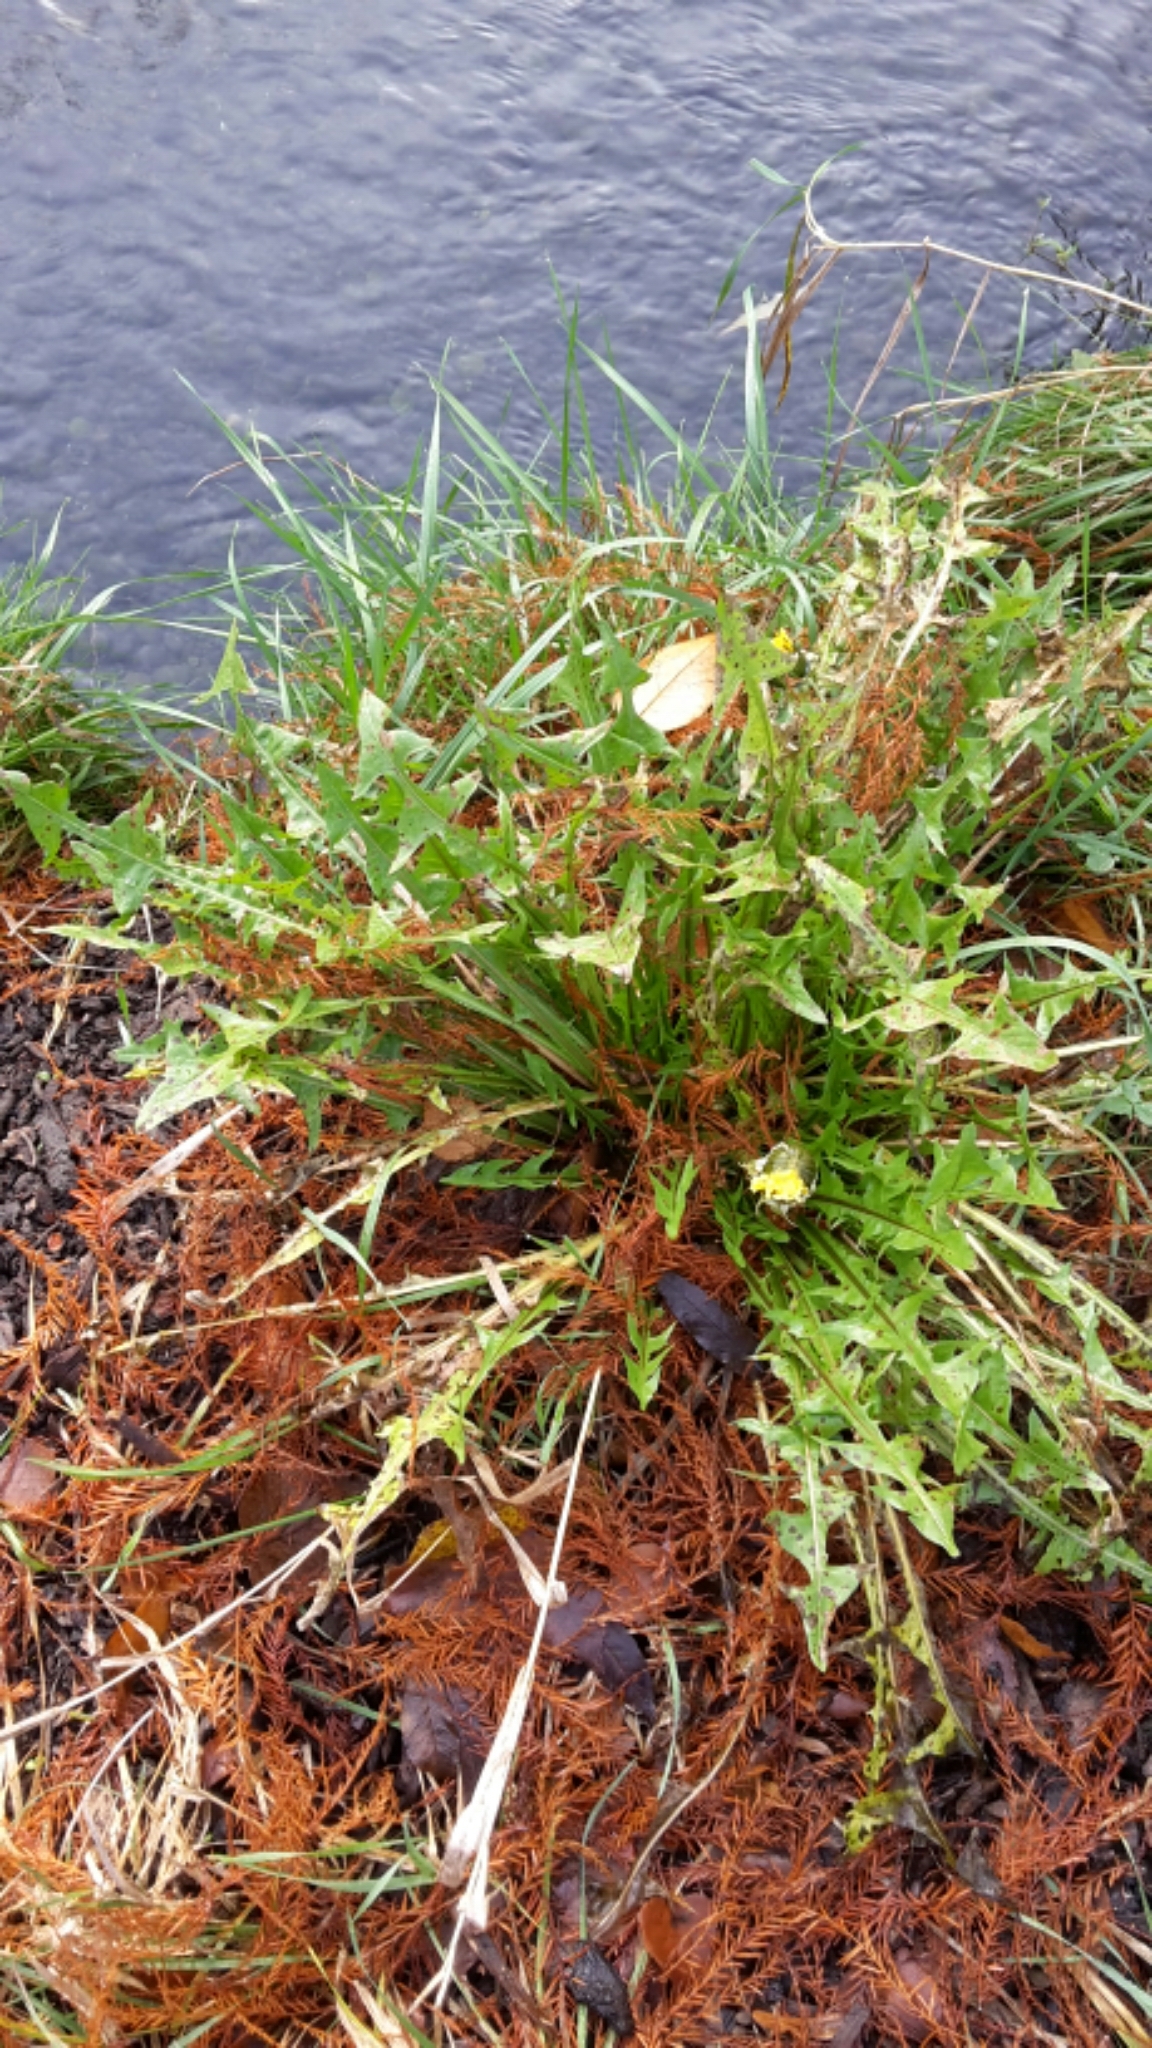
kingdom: Plantae
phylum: Tracheophyta
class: Magnoliopsida
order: Asterales
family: Asteraceae
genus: Taraxacum
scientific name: Taraxacum officinale
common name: Common dandelion
